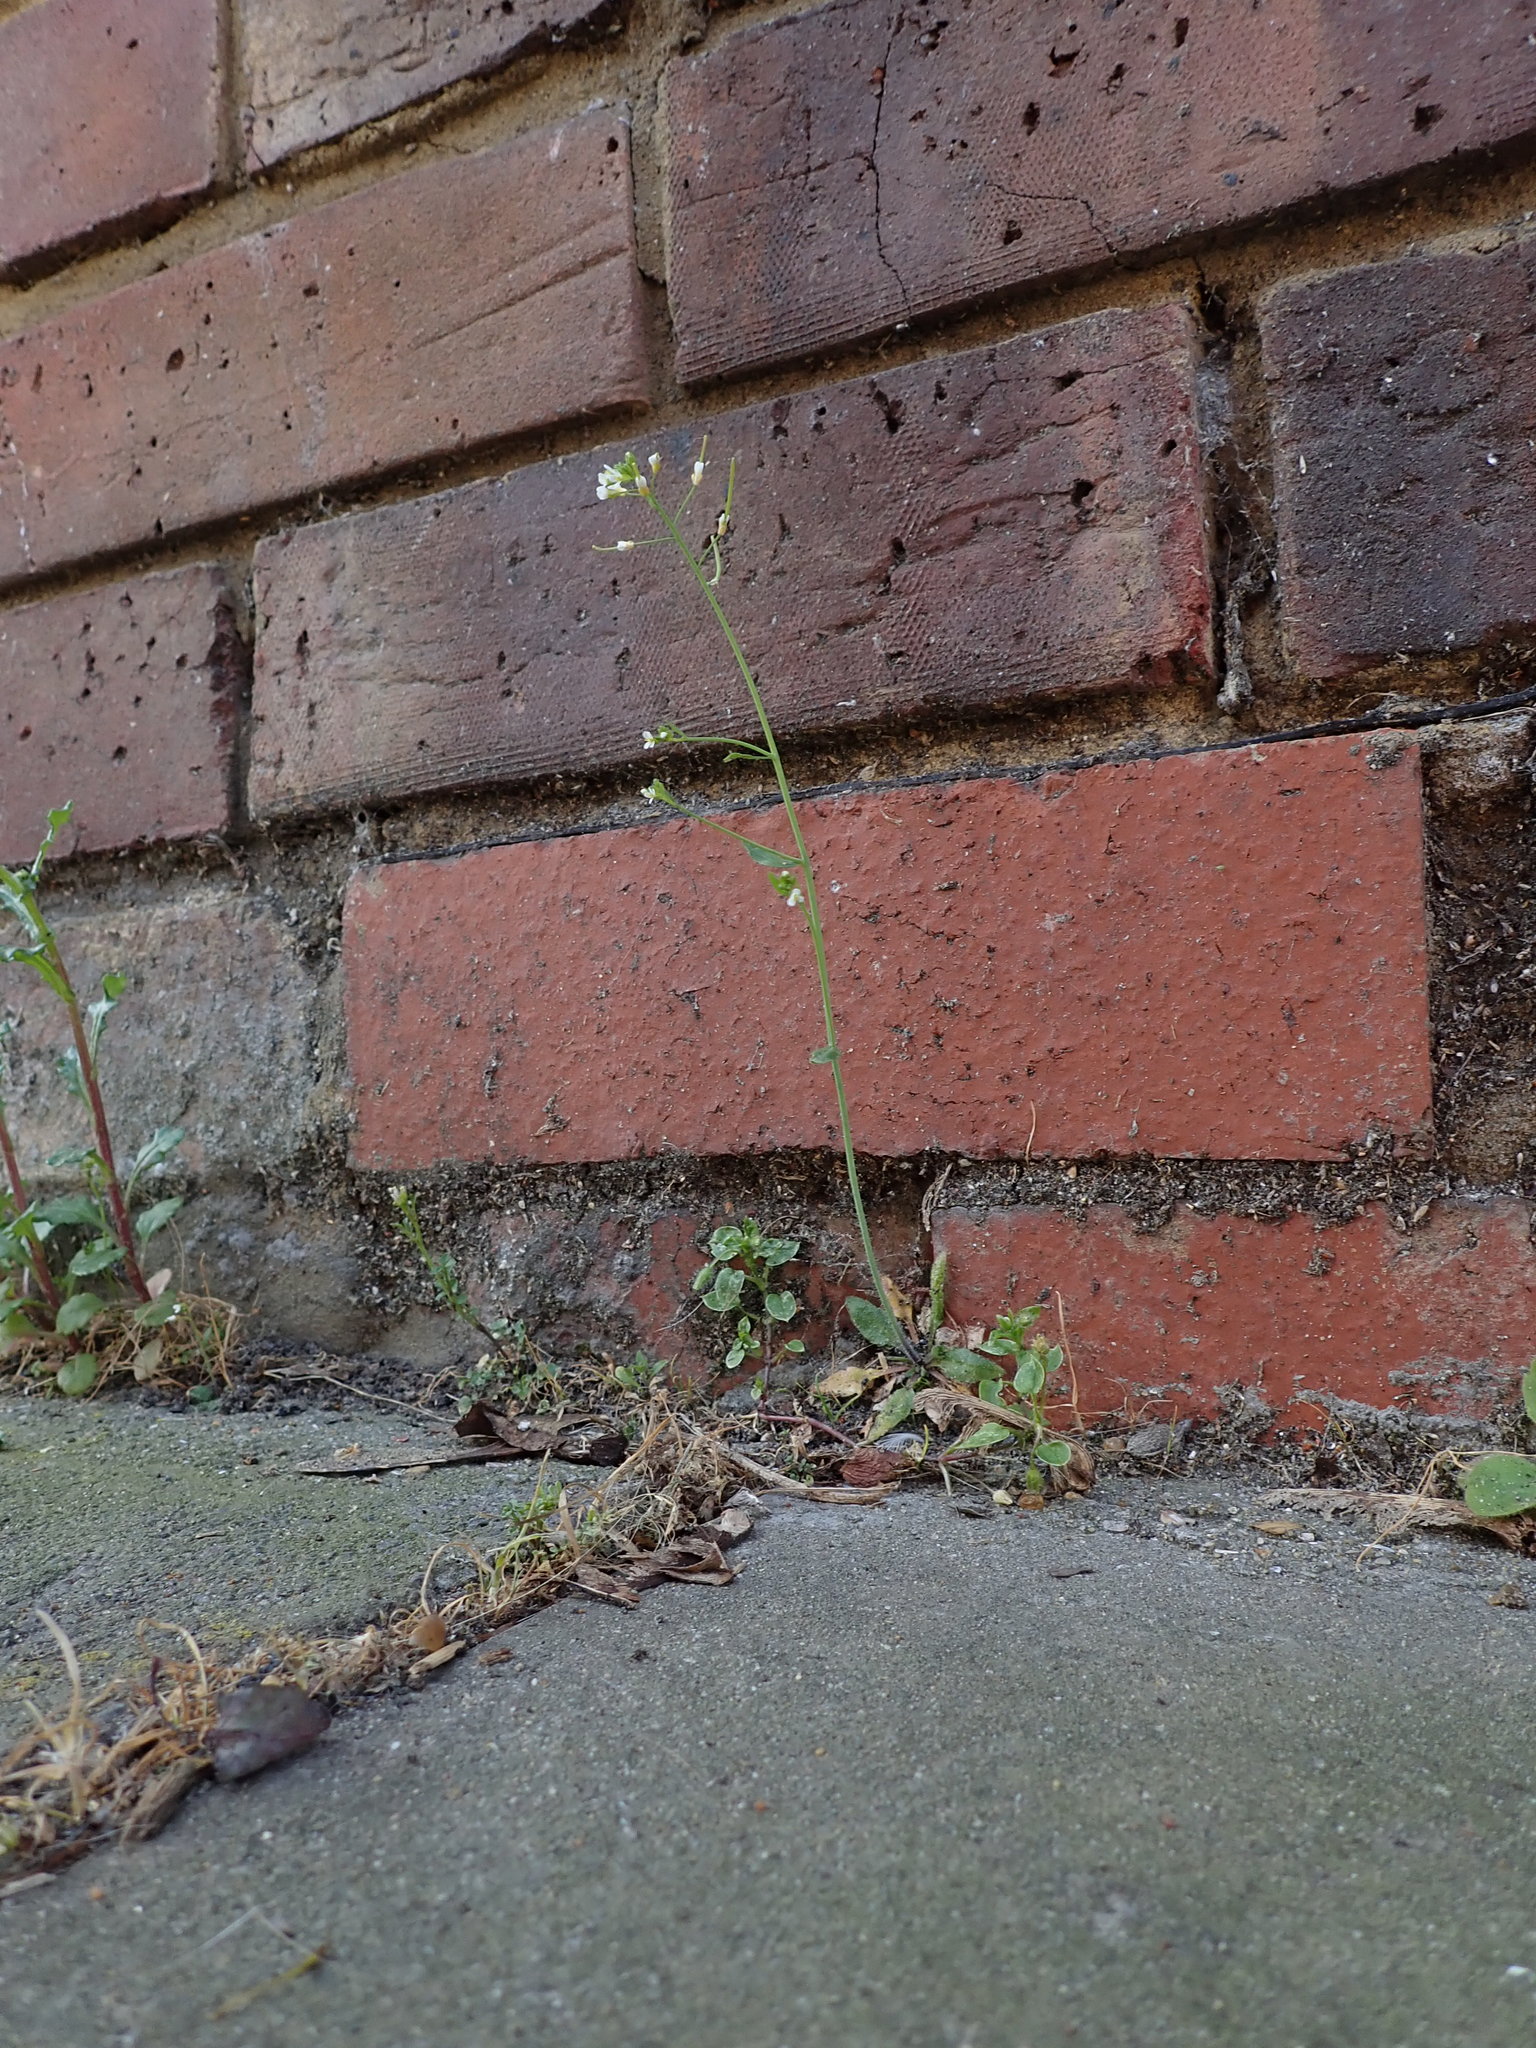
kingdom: Plantae
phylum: Tracheophyta
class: Magnoliopsida
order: Brassicales
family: Brassicaceae
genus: Arabidopsis
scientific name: Arabidopsis thaliana
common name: Thale cress
